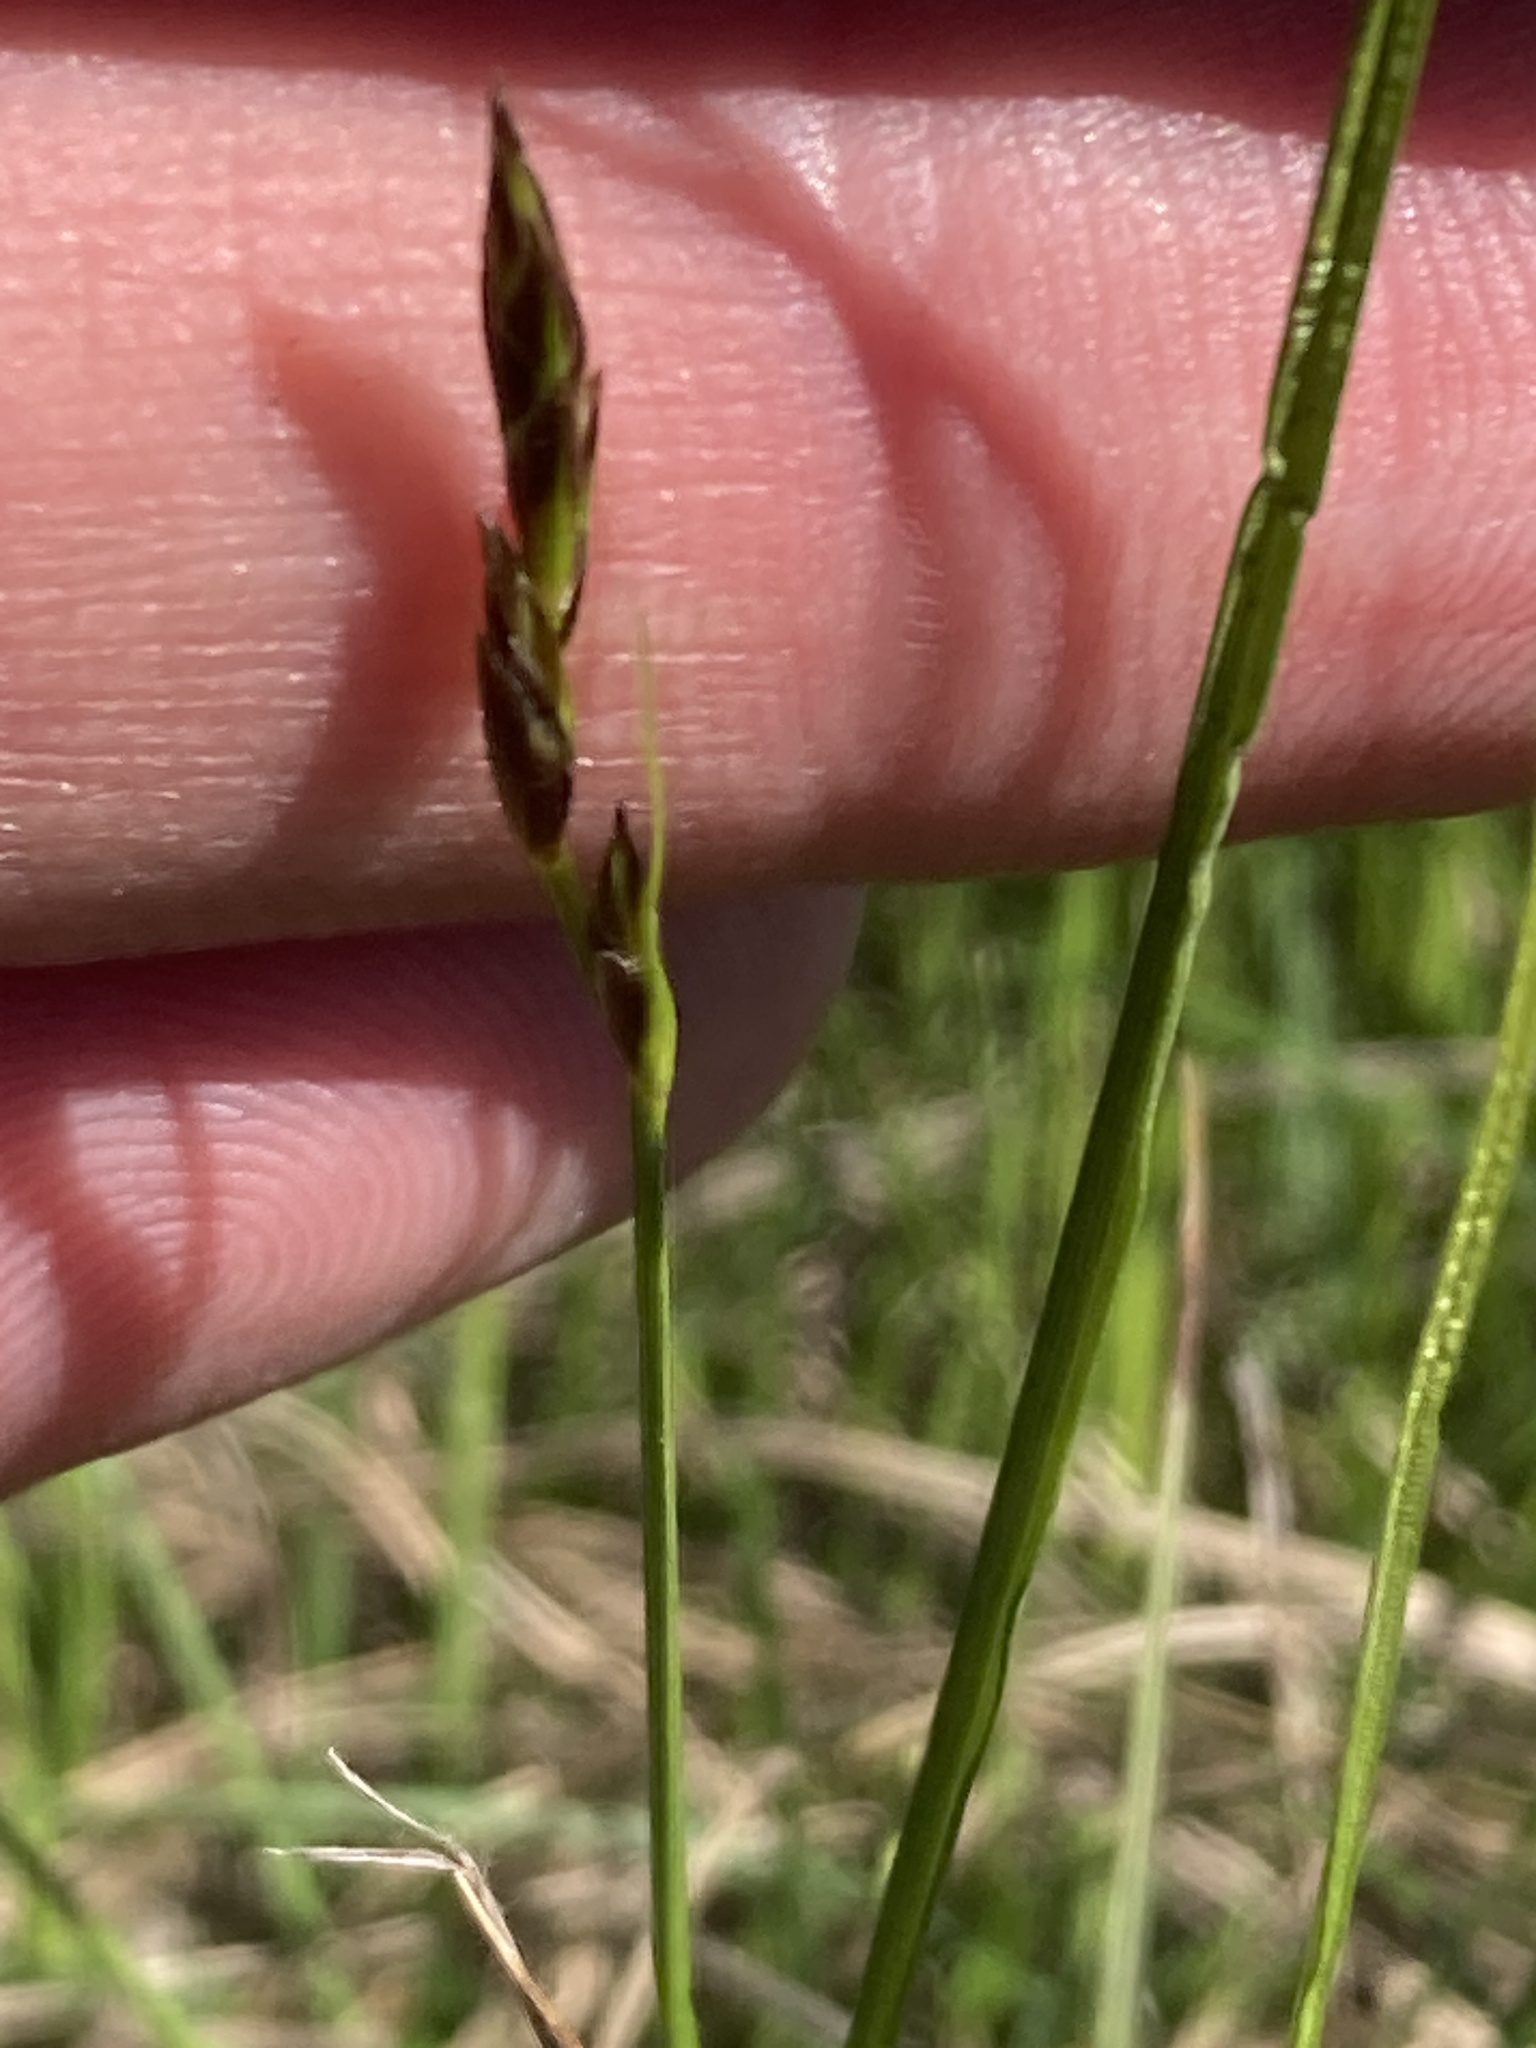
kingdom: Plantae
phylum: Tracheophyta
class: Liliopsida
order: Poales
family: Cyperaceae
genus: Carex
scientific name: Carex praecox
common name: Early sedge
